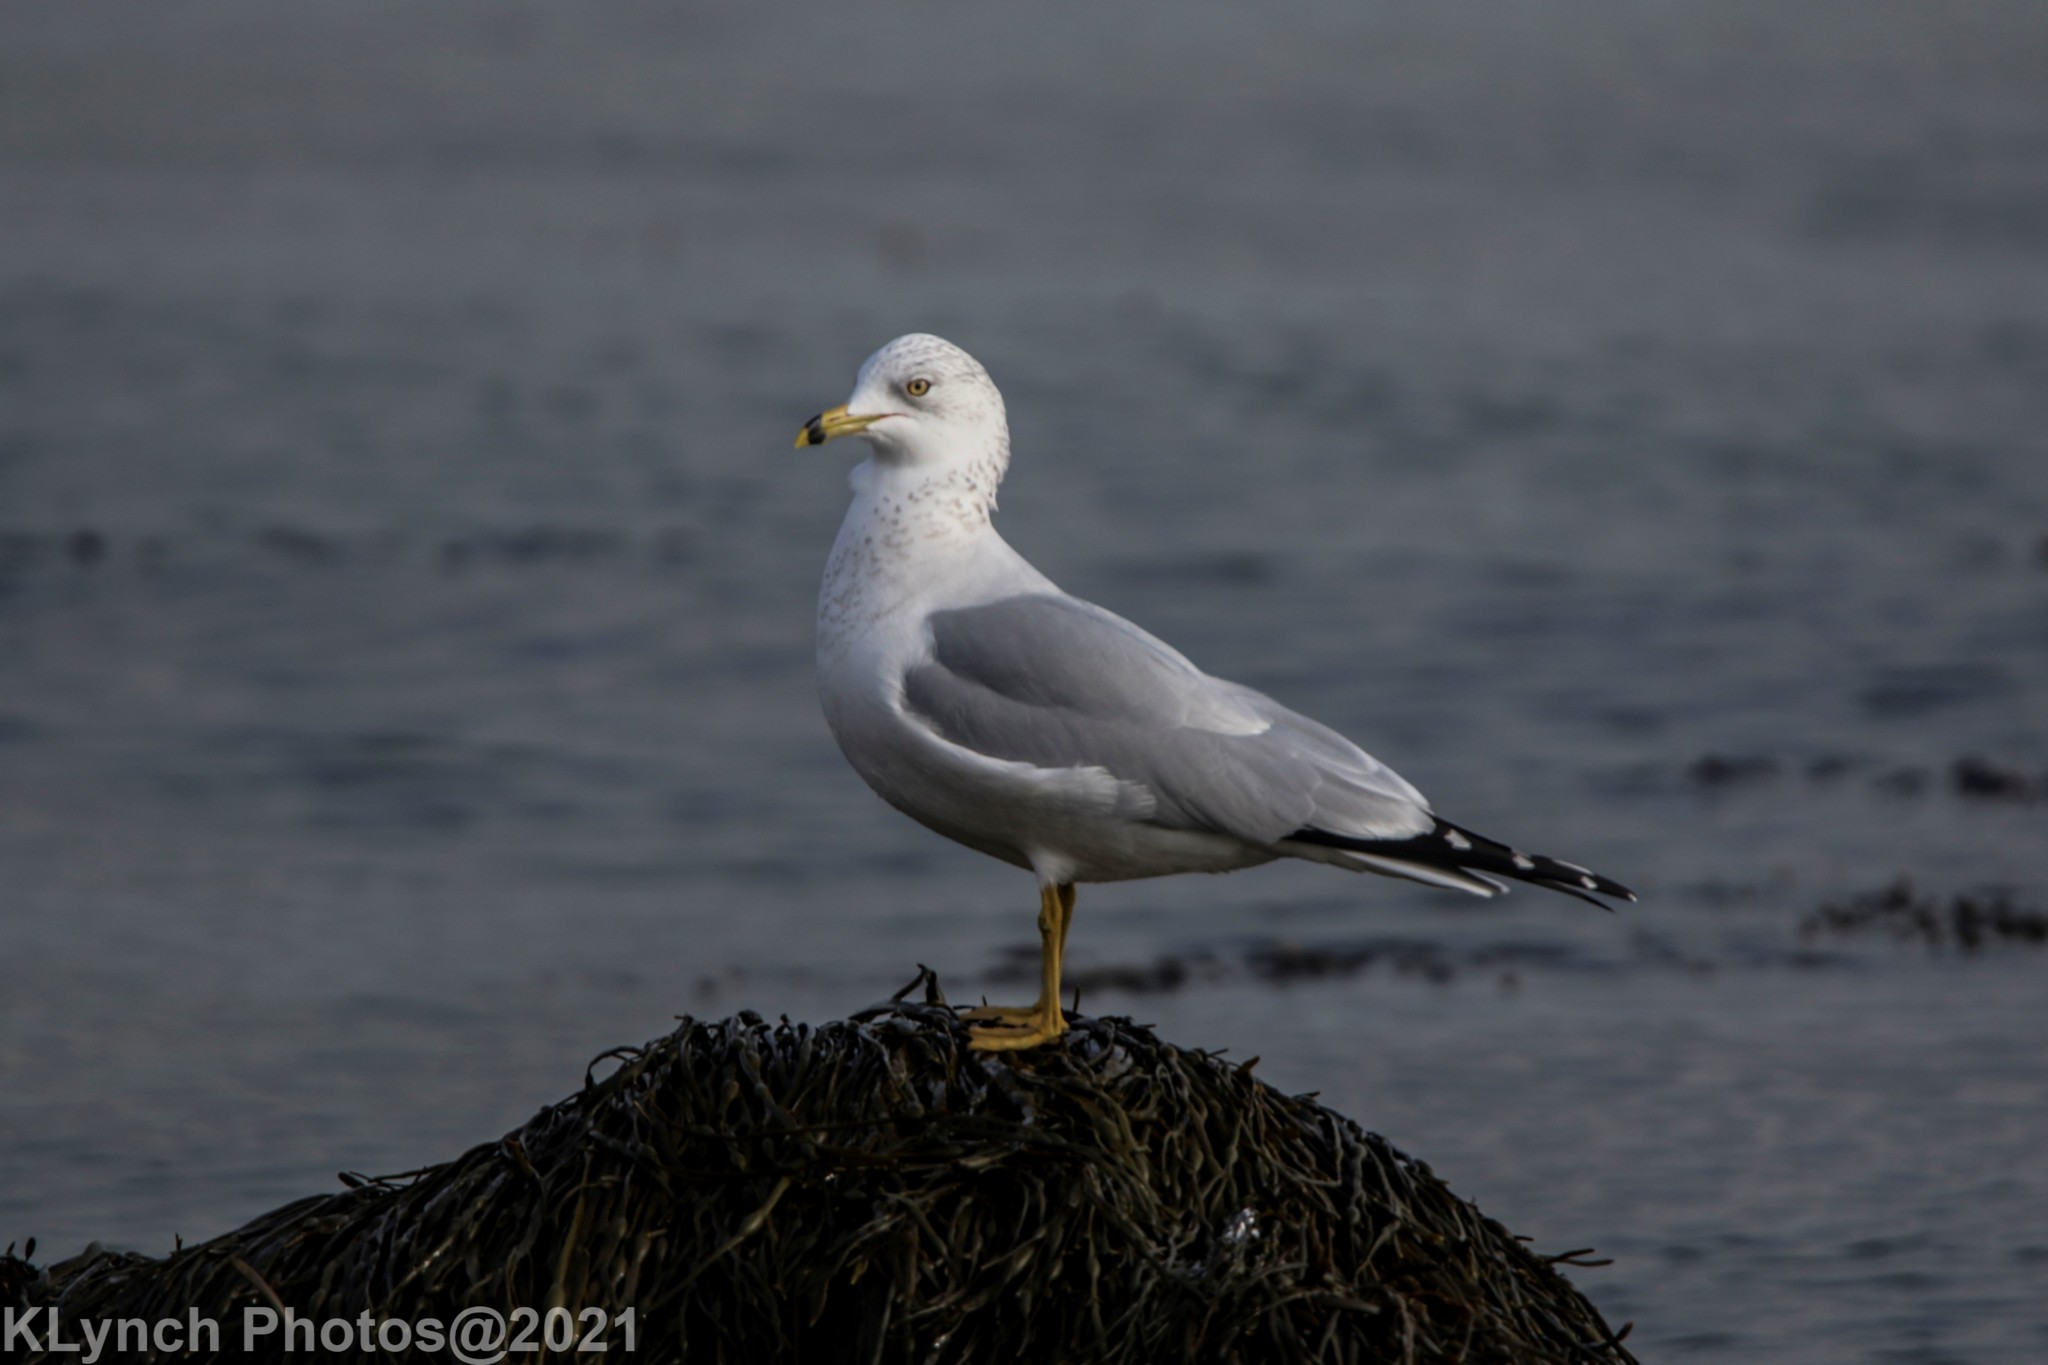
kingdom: Animalia
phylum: Chordata
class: Aves
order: Charadriiformes
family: Laridae
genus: Larus
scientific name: Larus delawarensis
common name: Ring-billed gull
